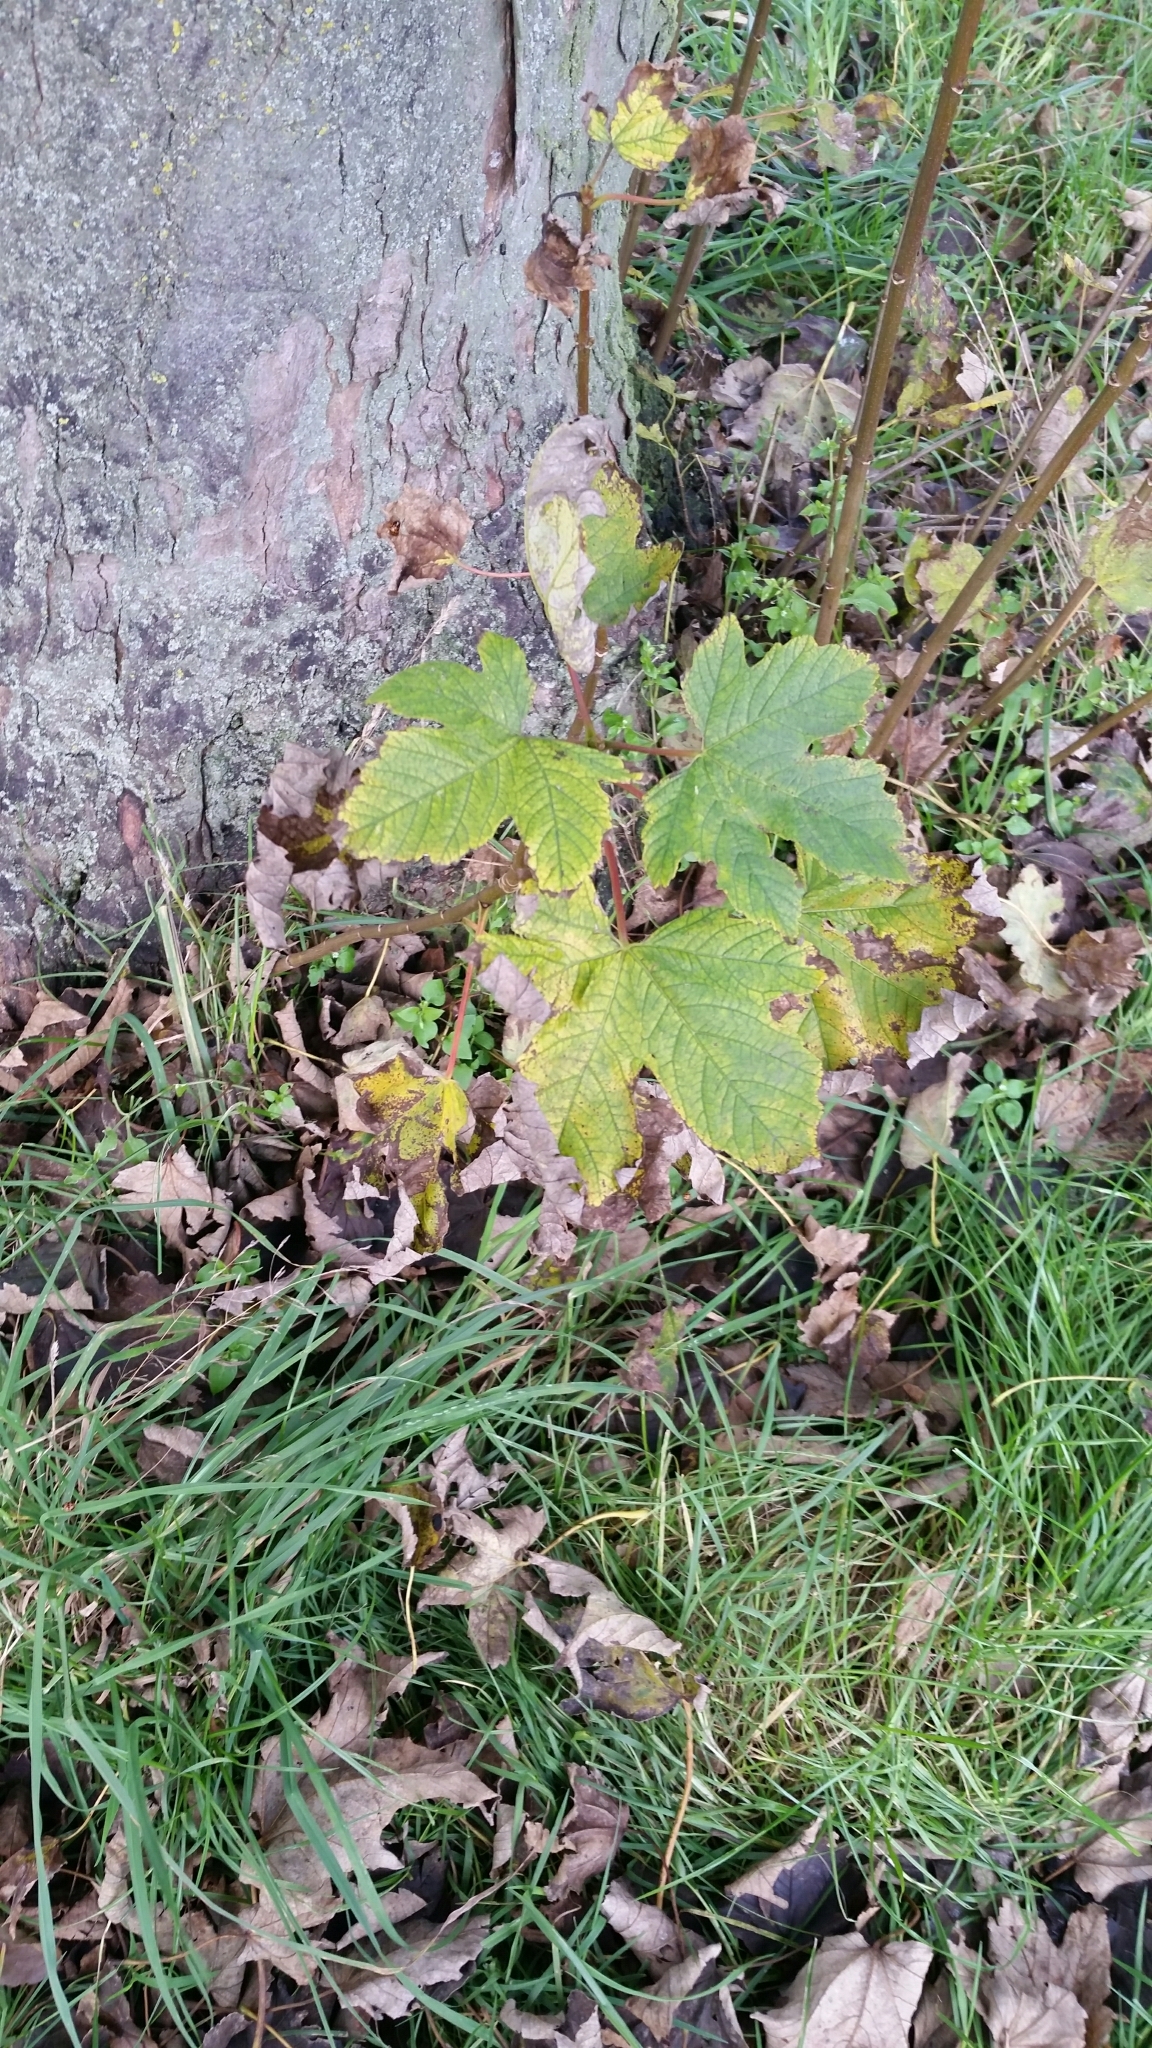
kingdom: Plantae
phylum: Tracheophyta
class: Magnoliopsida
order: Sapindales
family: Sapindaceae
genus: Acer
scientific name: Acer pseudoplatanus
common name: Sycamore
